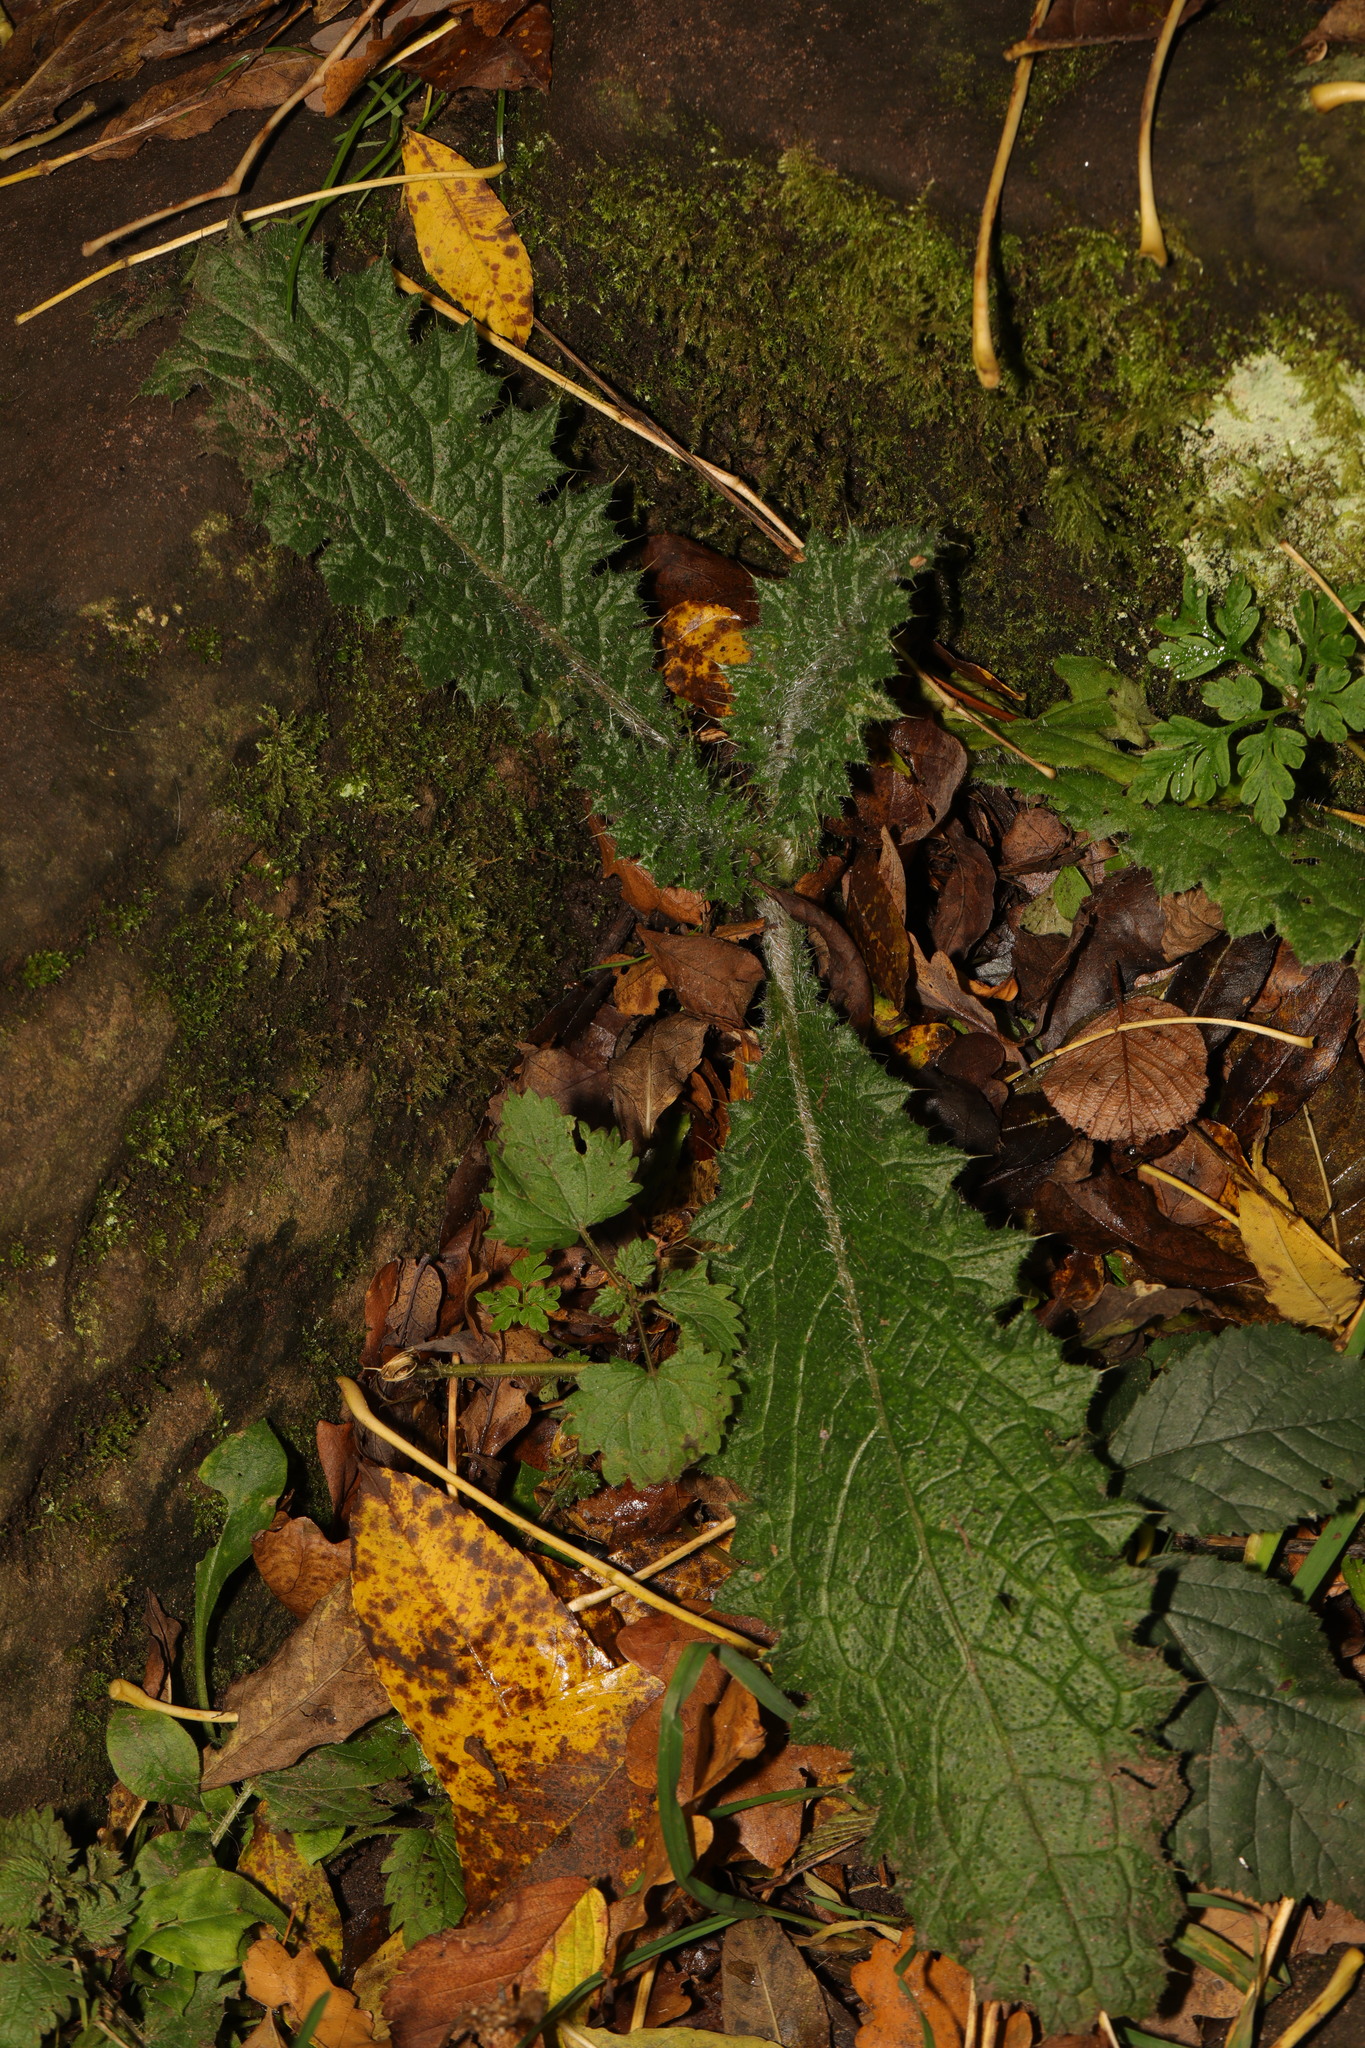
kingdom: Plantae
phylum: Tracheophyta
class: Magnoliopsida
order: Asterales
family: Asteraceae
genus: Cirsium
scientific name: Cirsium vulgare
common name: Bull thistle
